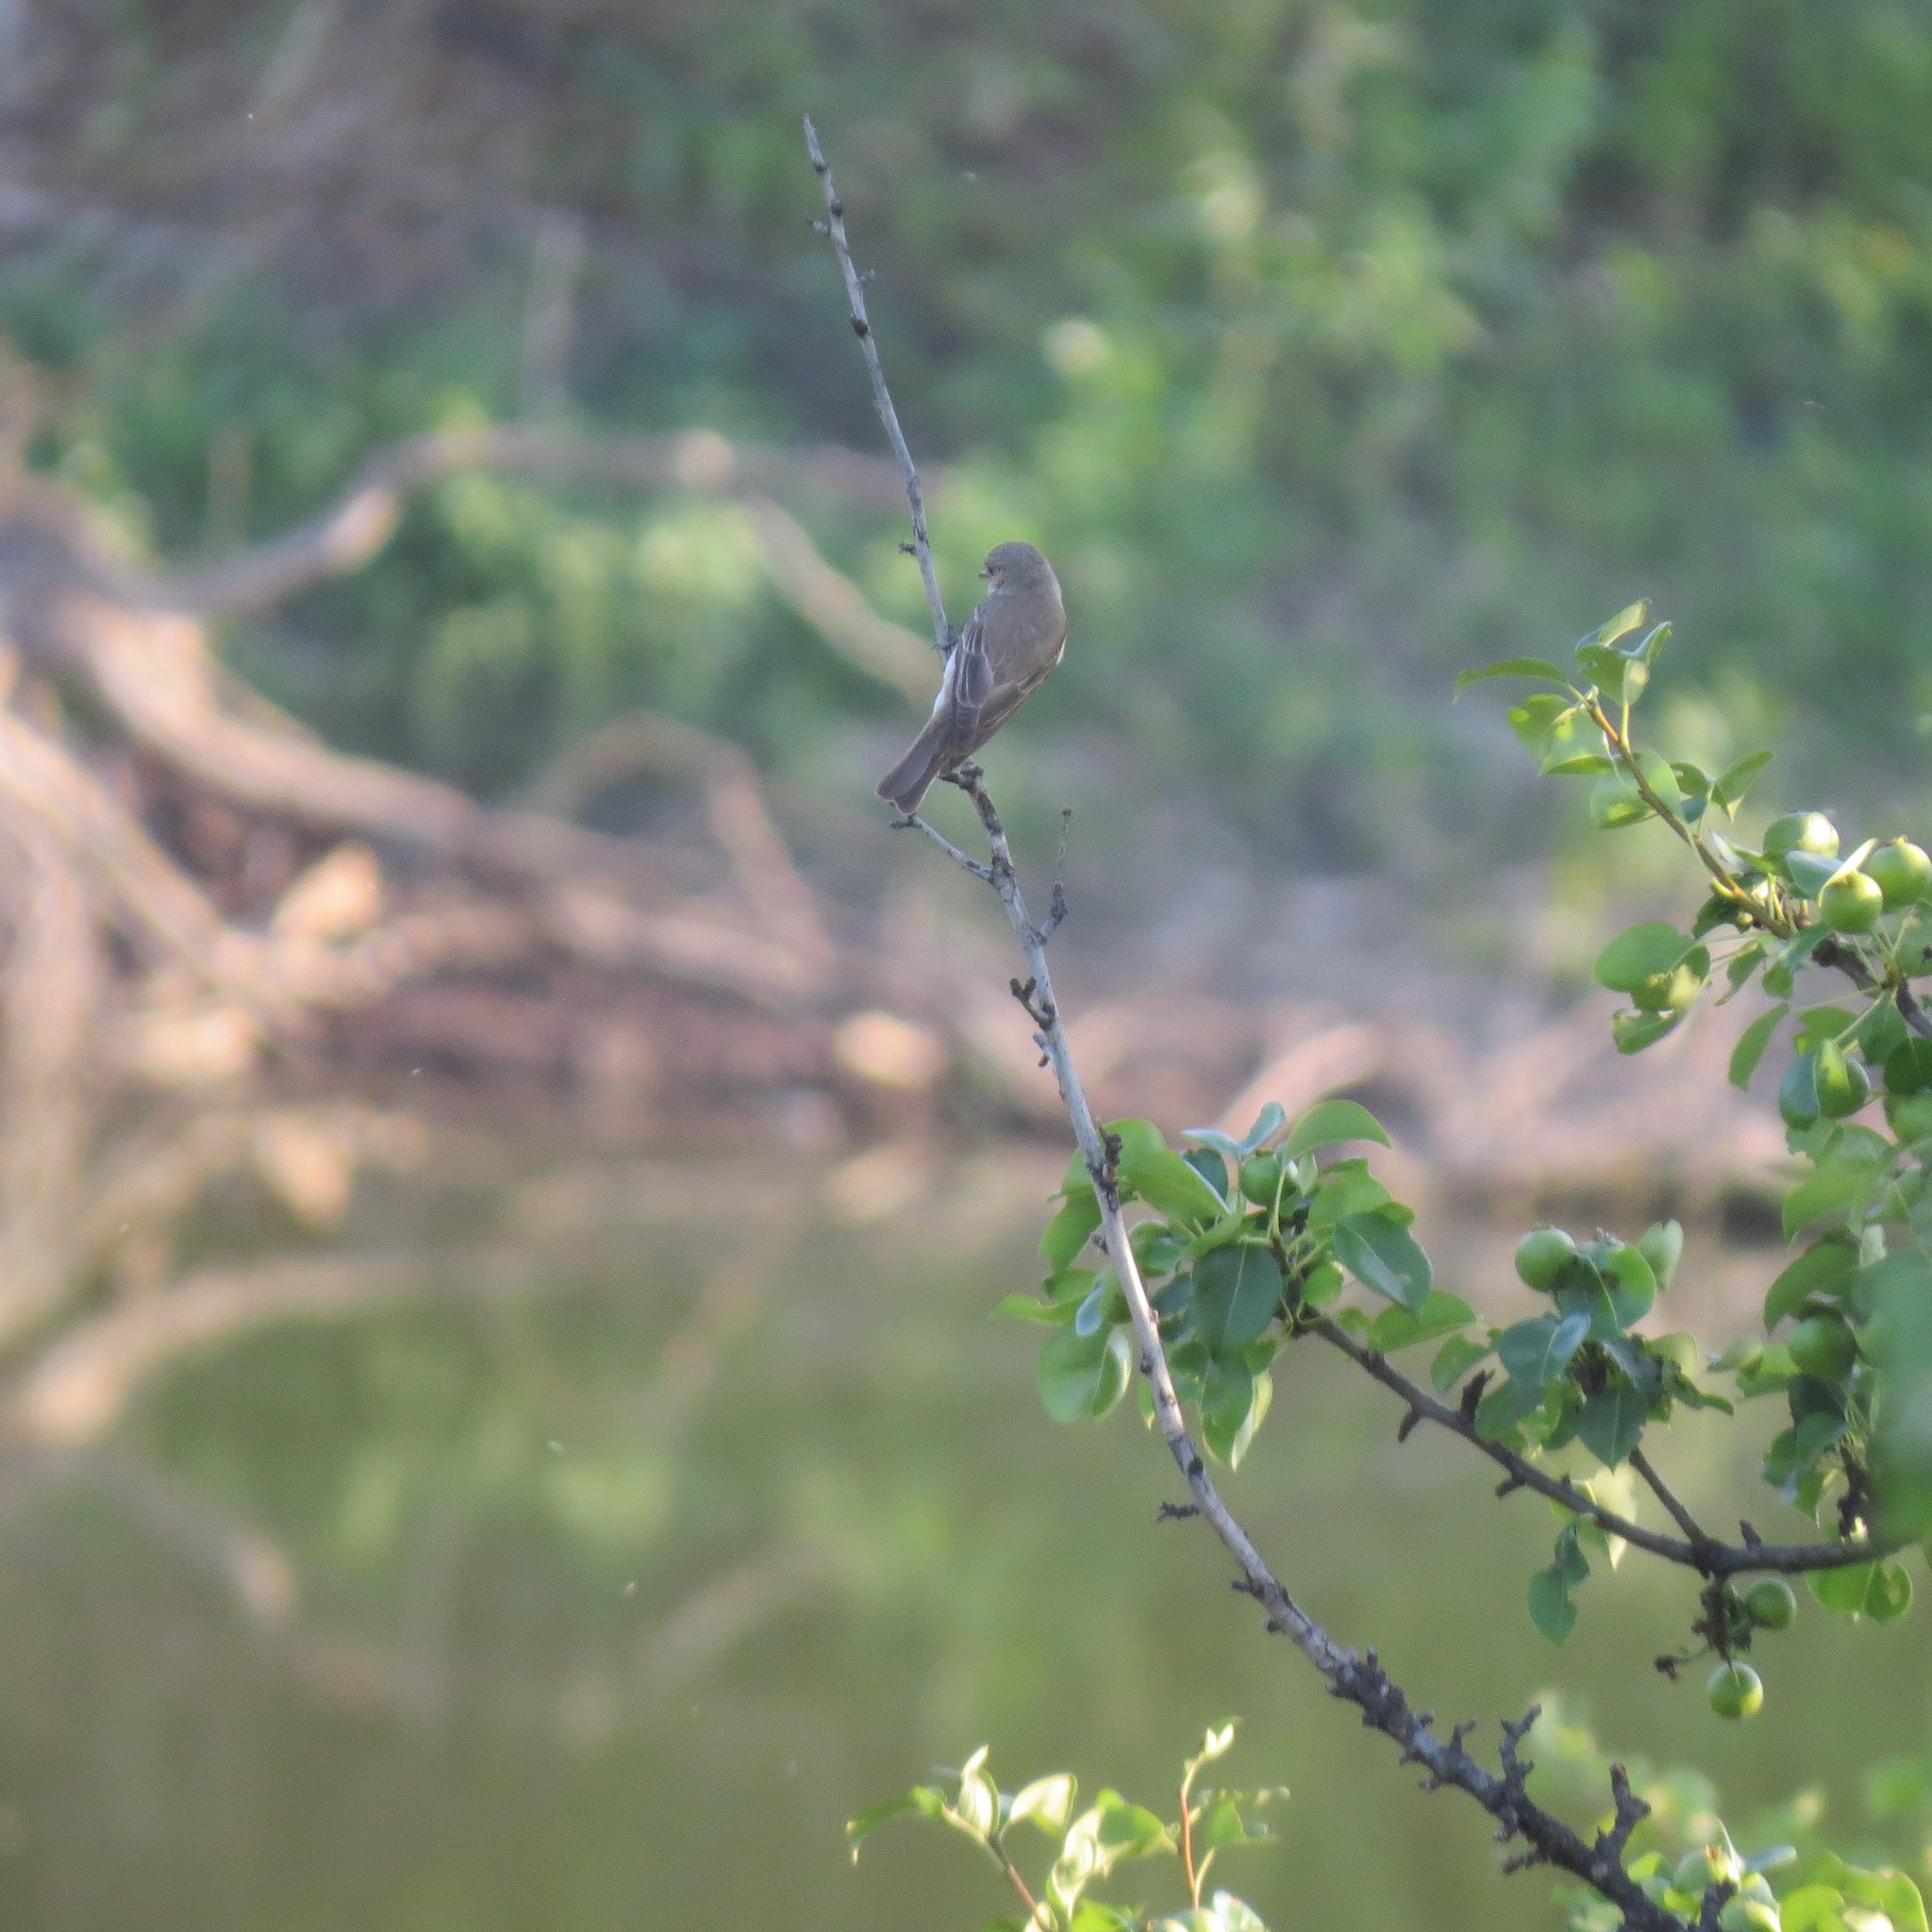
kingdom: Animalia
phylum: Chordata
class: Aves
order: Passeriformes
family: Muscicapidae
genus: Ficedula
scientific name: Ficedula hypoleuca
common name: European pied flycatcher
